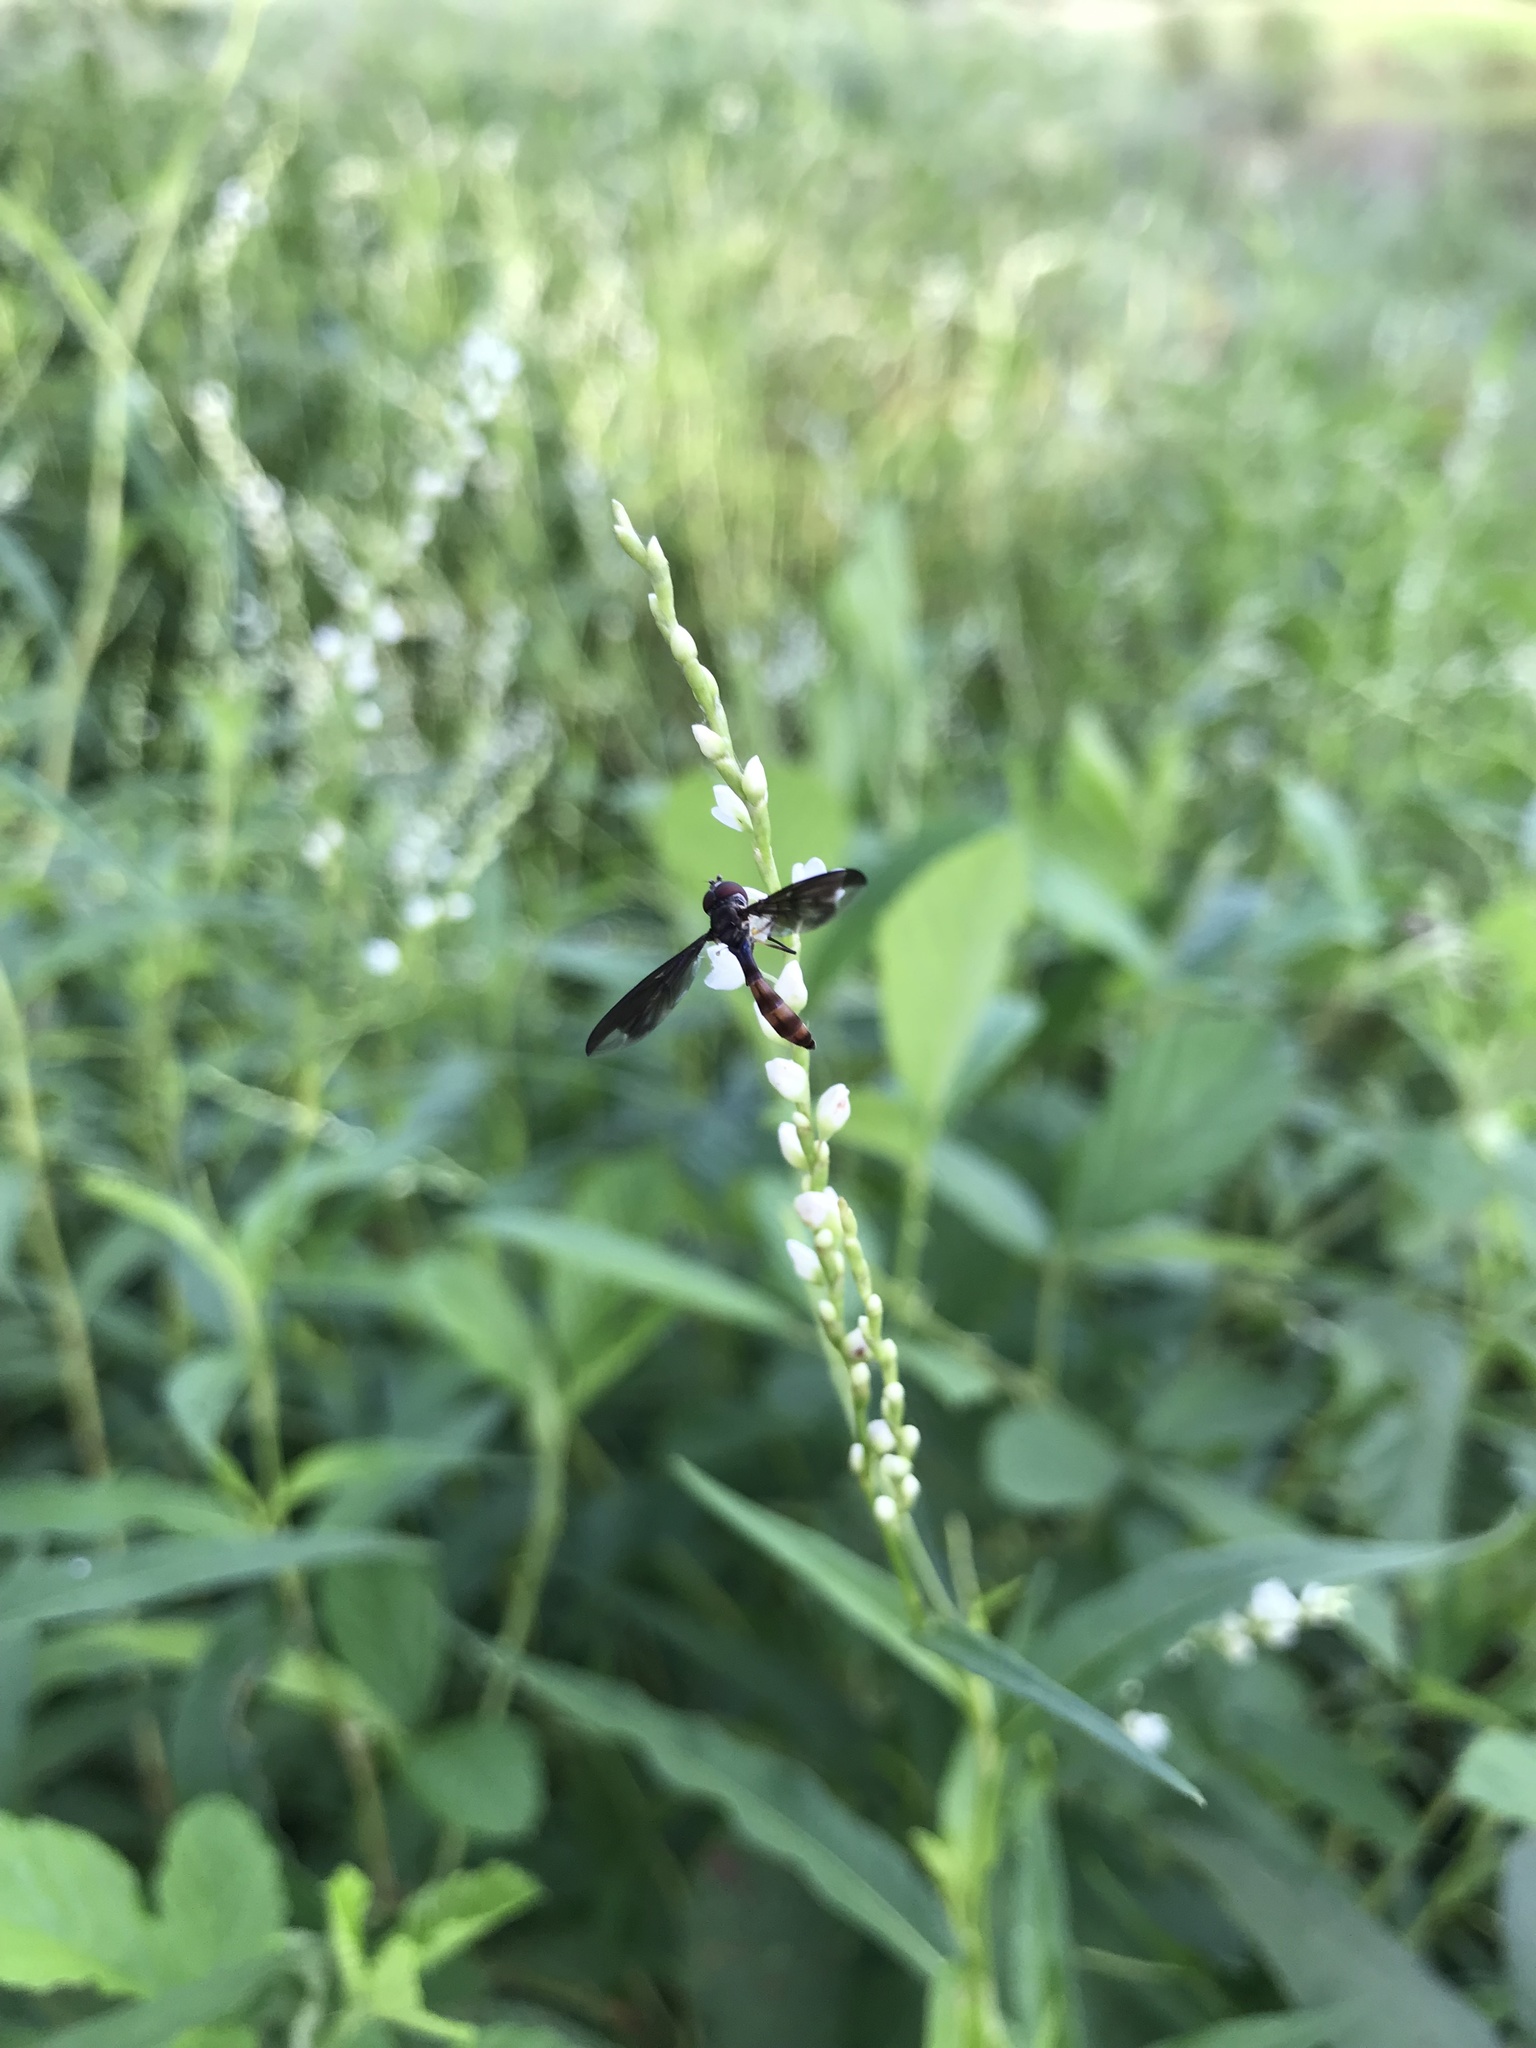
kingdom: Animalia
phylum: Arthropoda
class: Insecta
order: Diptera
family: Syrphidae
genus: Ocyptamus
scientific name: Ocyptamus fuscipennis
